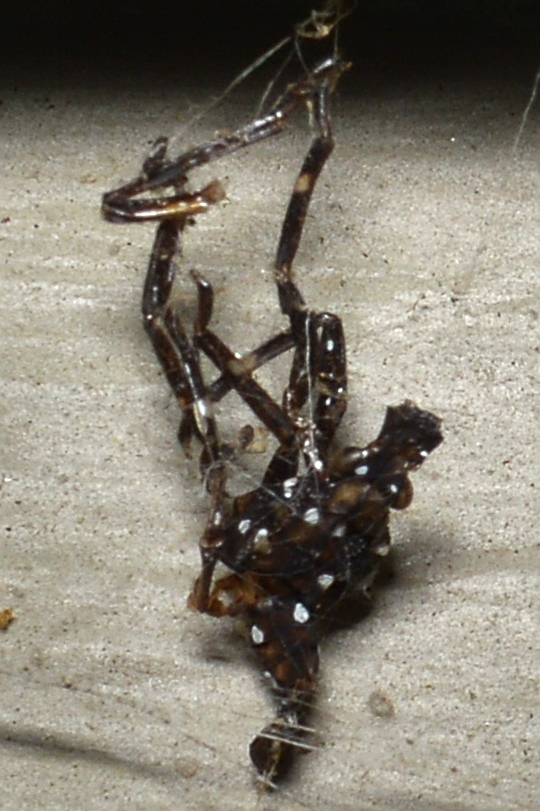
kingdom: Animalia
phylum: Arthropoda
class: Insecta
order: Hemiptera
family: Fulgoridae
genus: Lycorma
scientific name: Lycorma delicatula
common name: Spotted lanternfly
